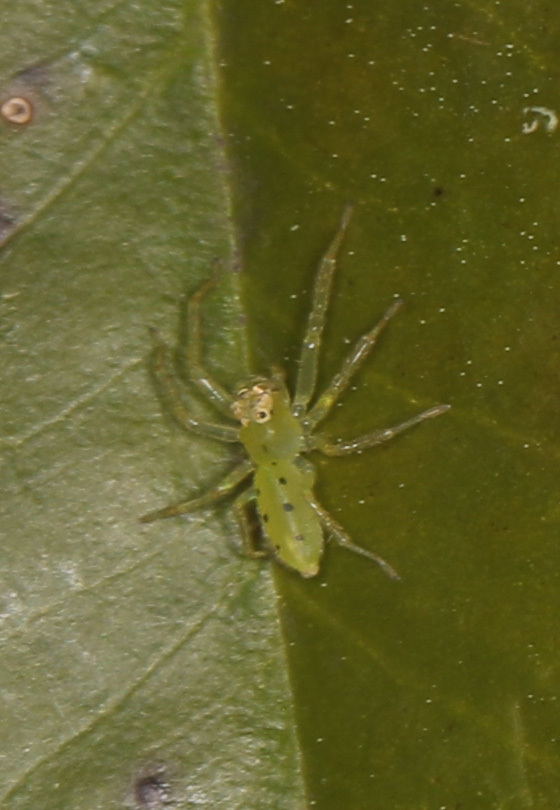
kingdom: Animalia
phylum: Arthropoda
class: Arachnida
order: Araneae
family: Salticidae
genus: Lyssomanes
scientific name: Lyssomanes viridis
